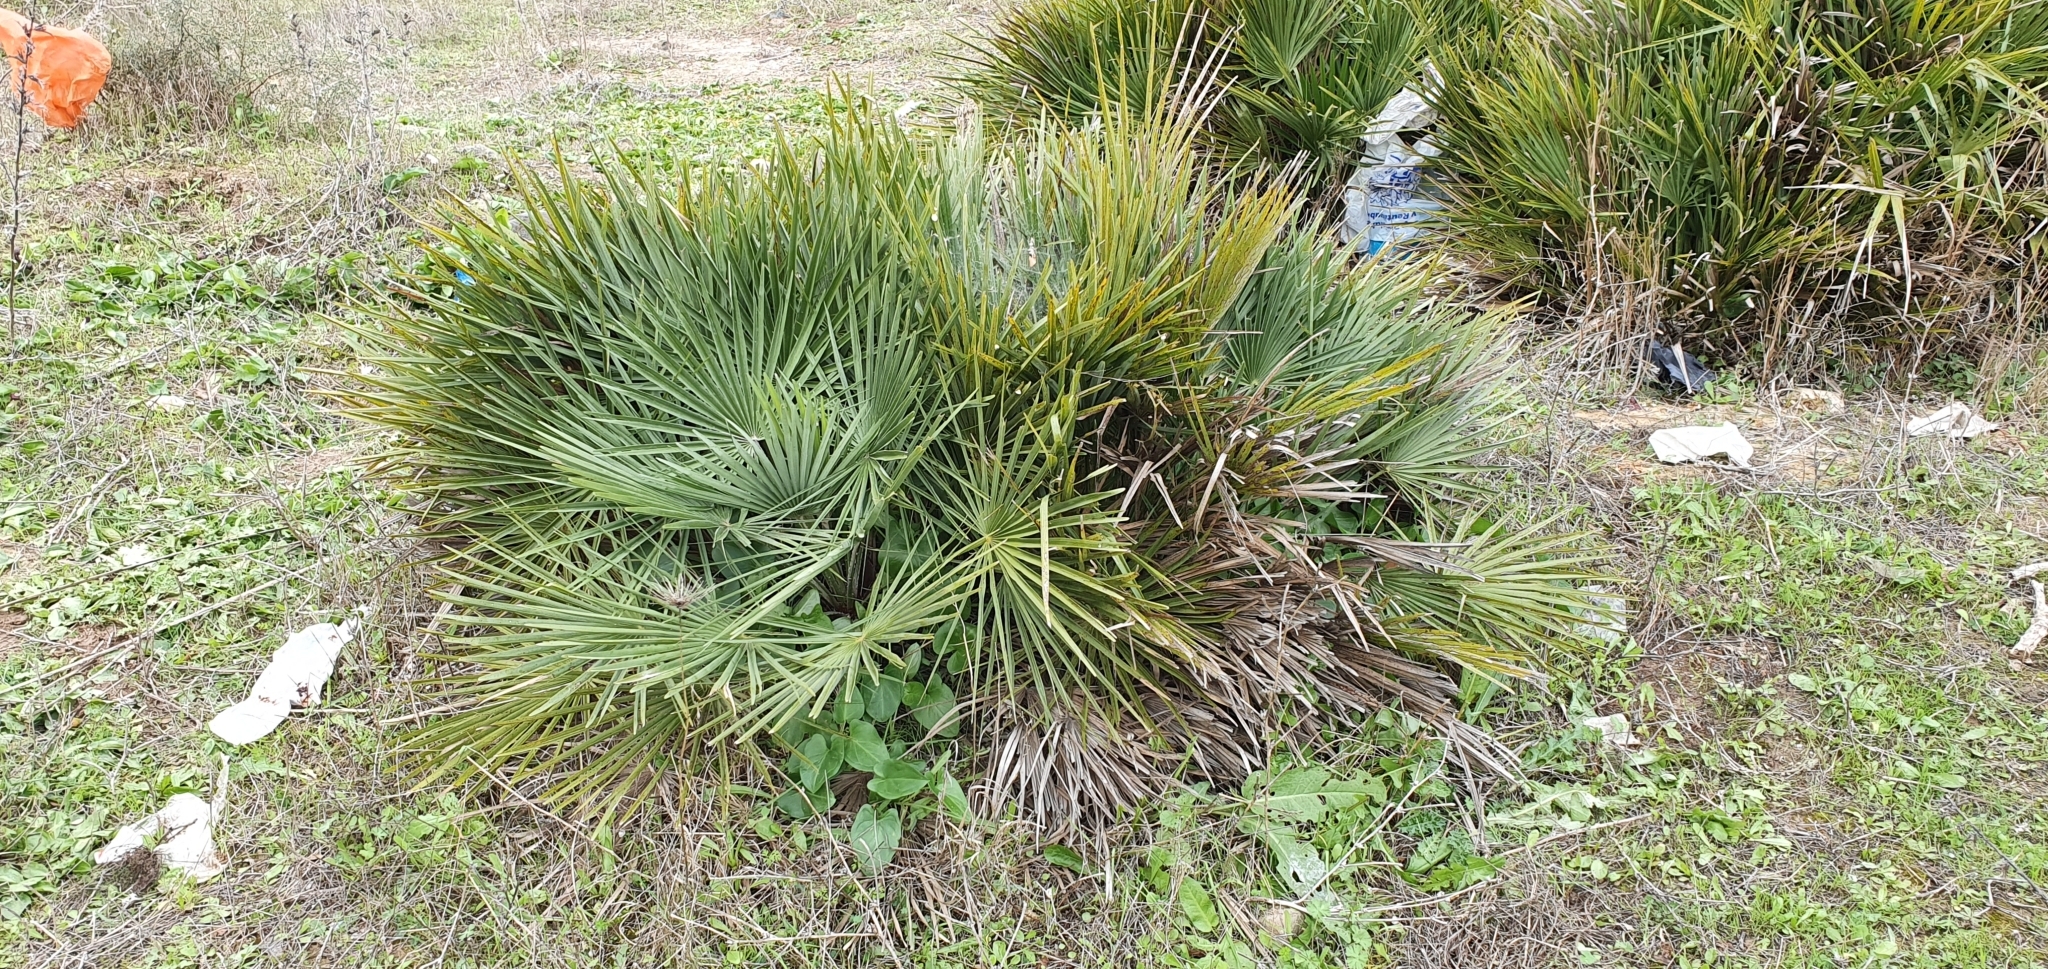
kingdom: Plantae
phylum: Tracheophyta
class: Liliopsida
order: Arecales
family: Arecaceae
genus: Chamaerops
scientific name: Chamaerops humilis
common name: Dwarf fan palm
